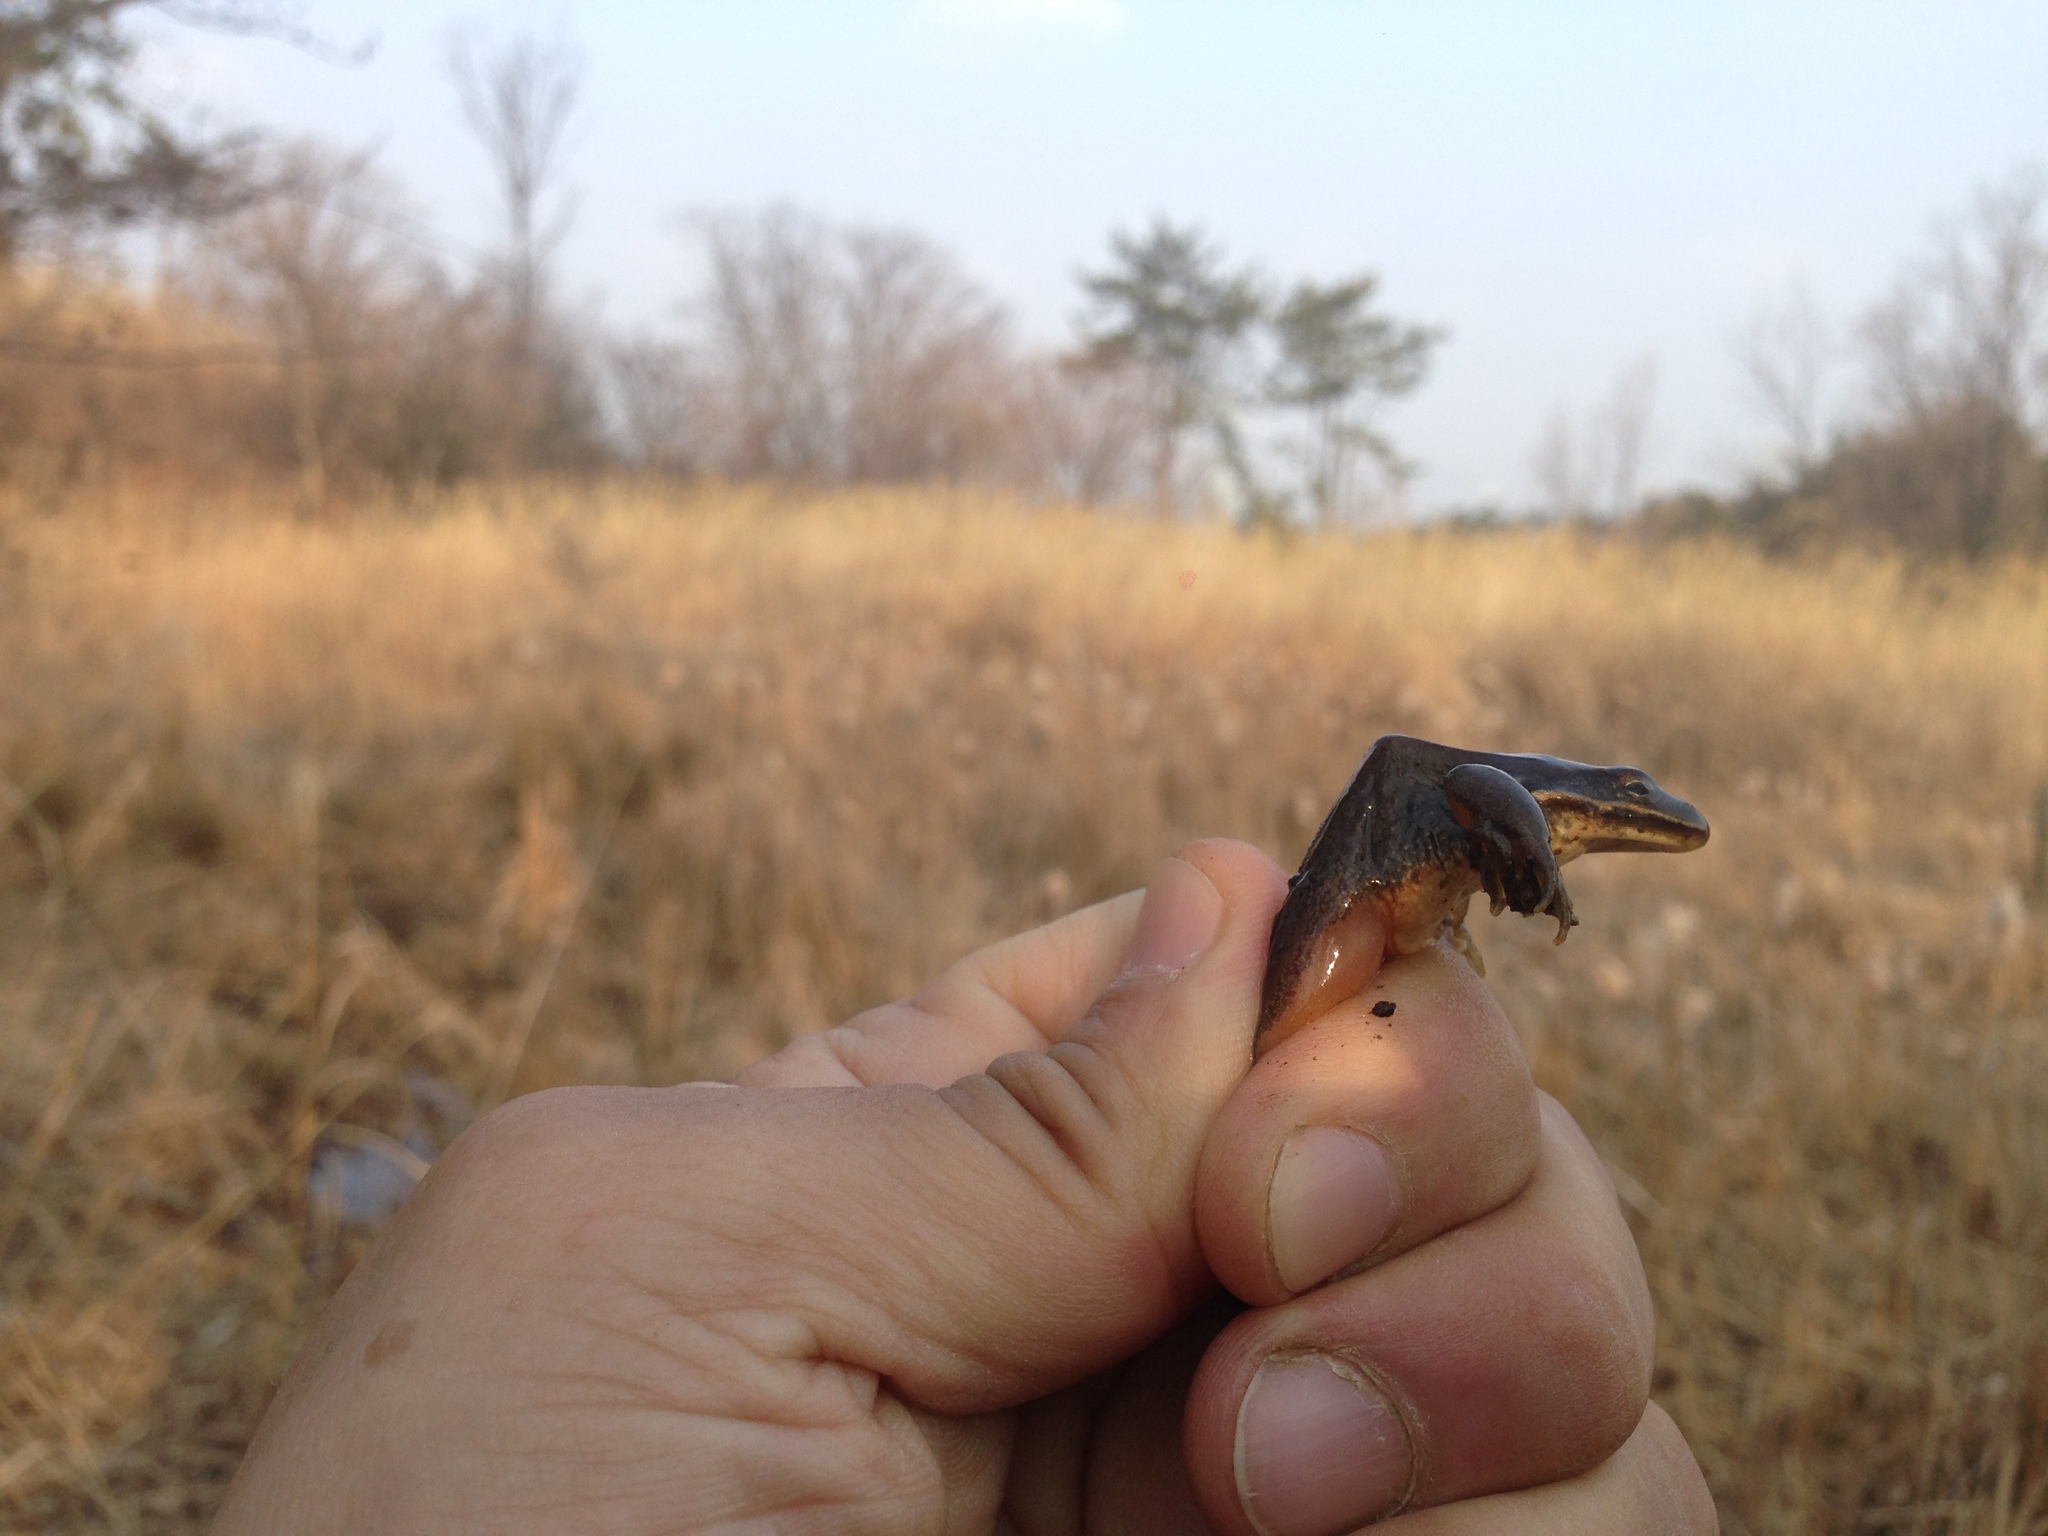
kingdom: Animalia
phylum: Chordata
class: Amphibia
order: Anura
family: Ranidae
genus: Rana
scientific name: Rana coreana
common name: Korean brown frog
